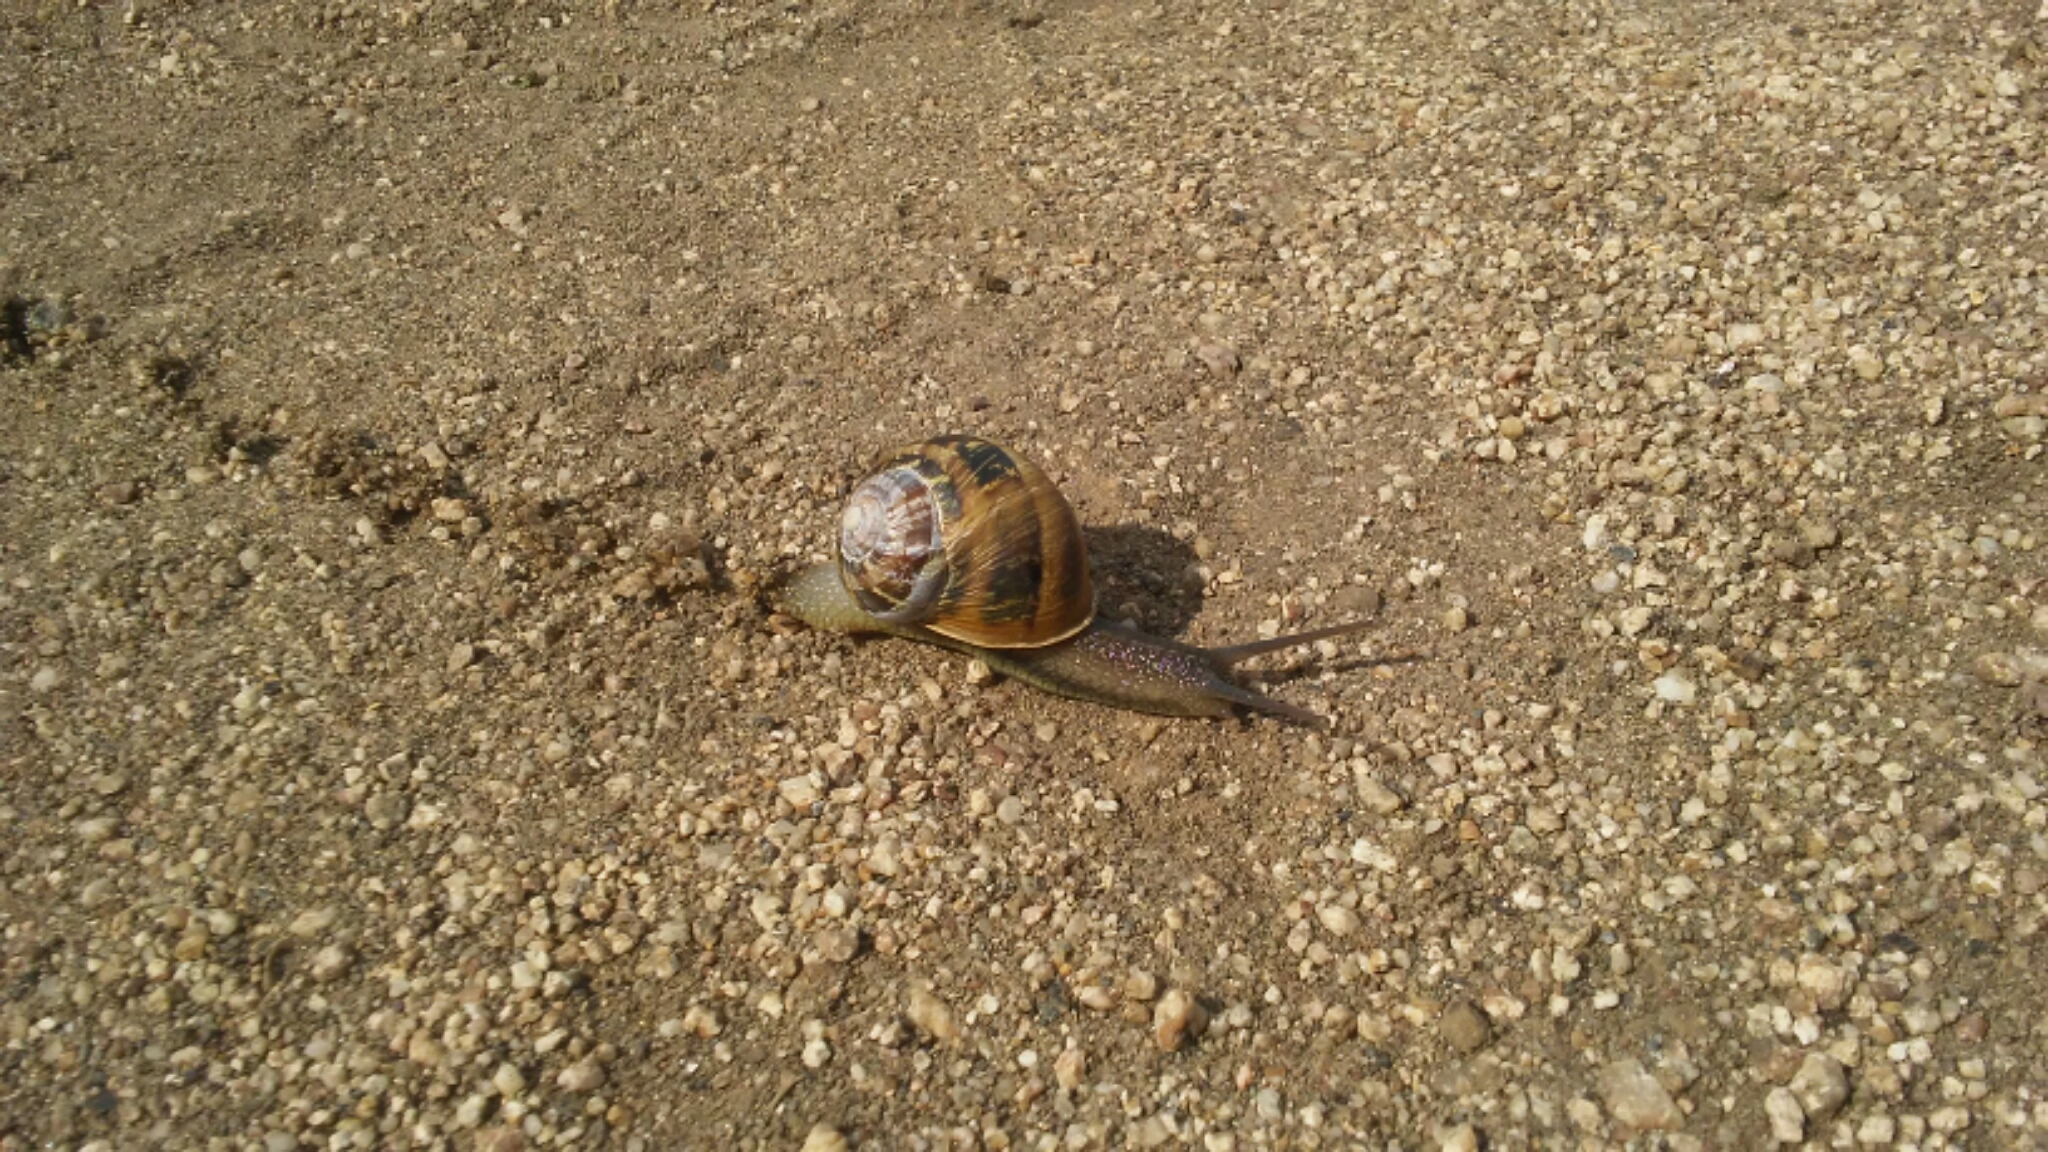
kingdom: Animalia
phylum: Mollusca
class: Gastropoda
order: Stylommatophora
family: Helicidae
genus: Cornu
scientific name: Cornu aspersum
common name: Brown garden snail
